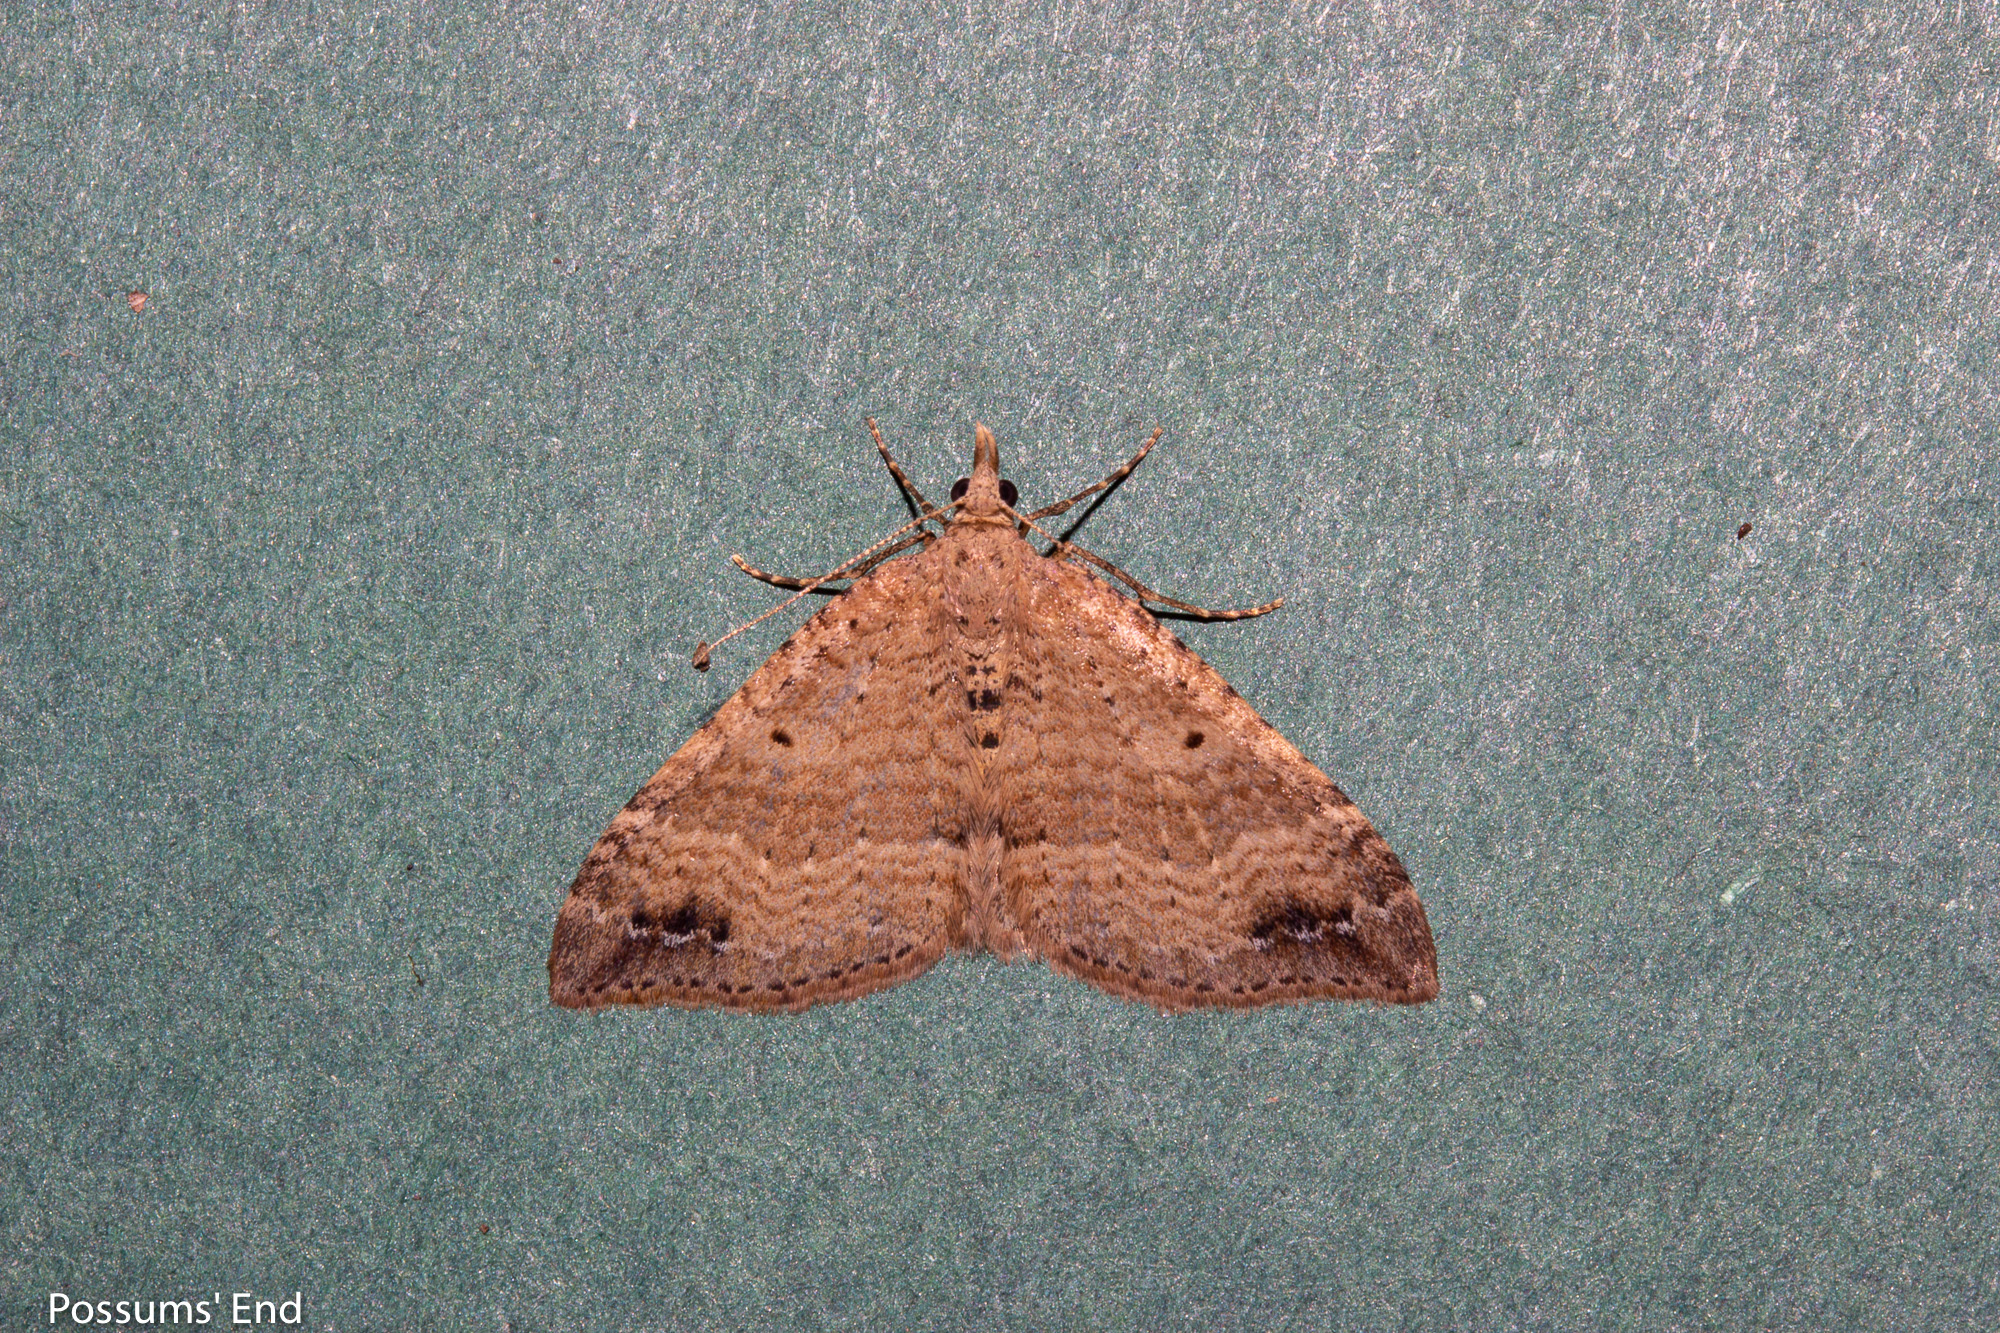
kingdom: Animalia
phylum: Arthropoda
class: Insecta
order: Lepidoptera
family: Geometridae
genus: Homodotis
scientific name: Homodotis falcata
